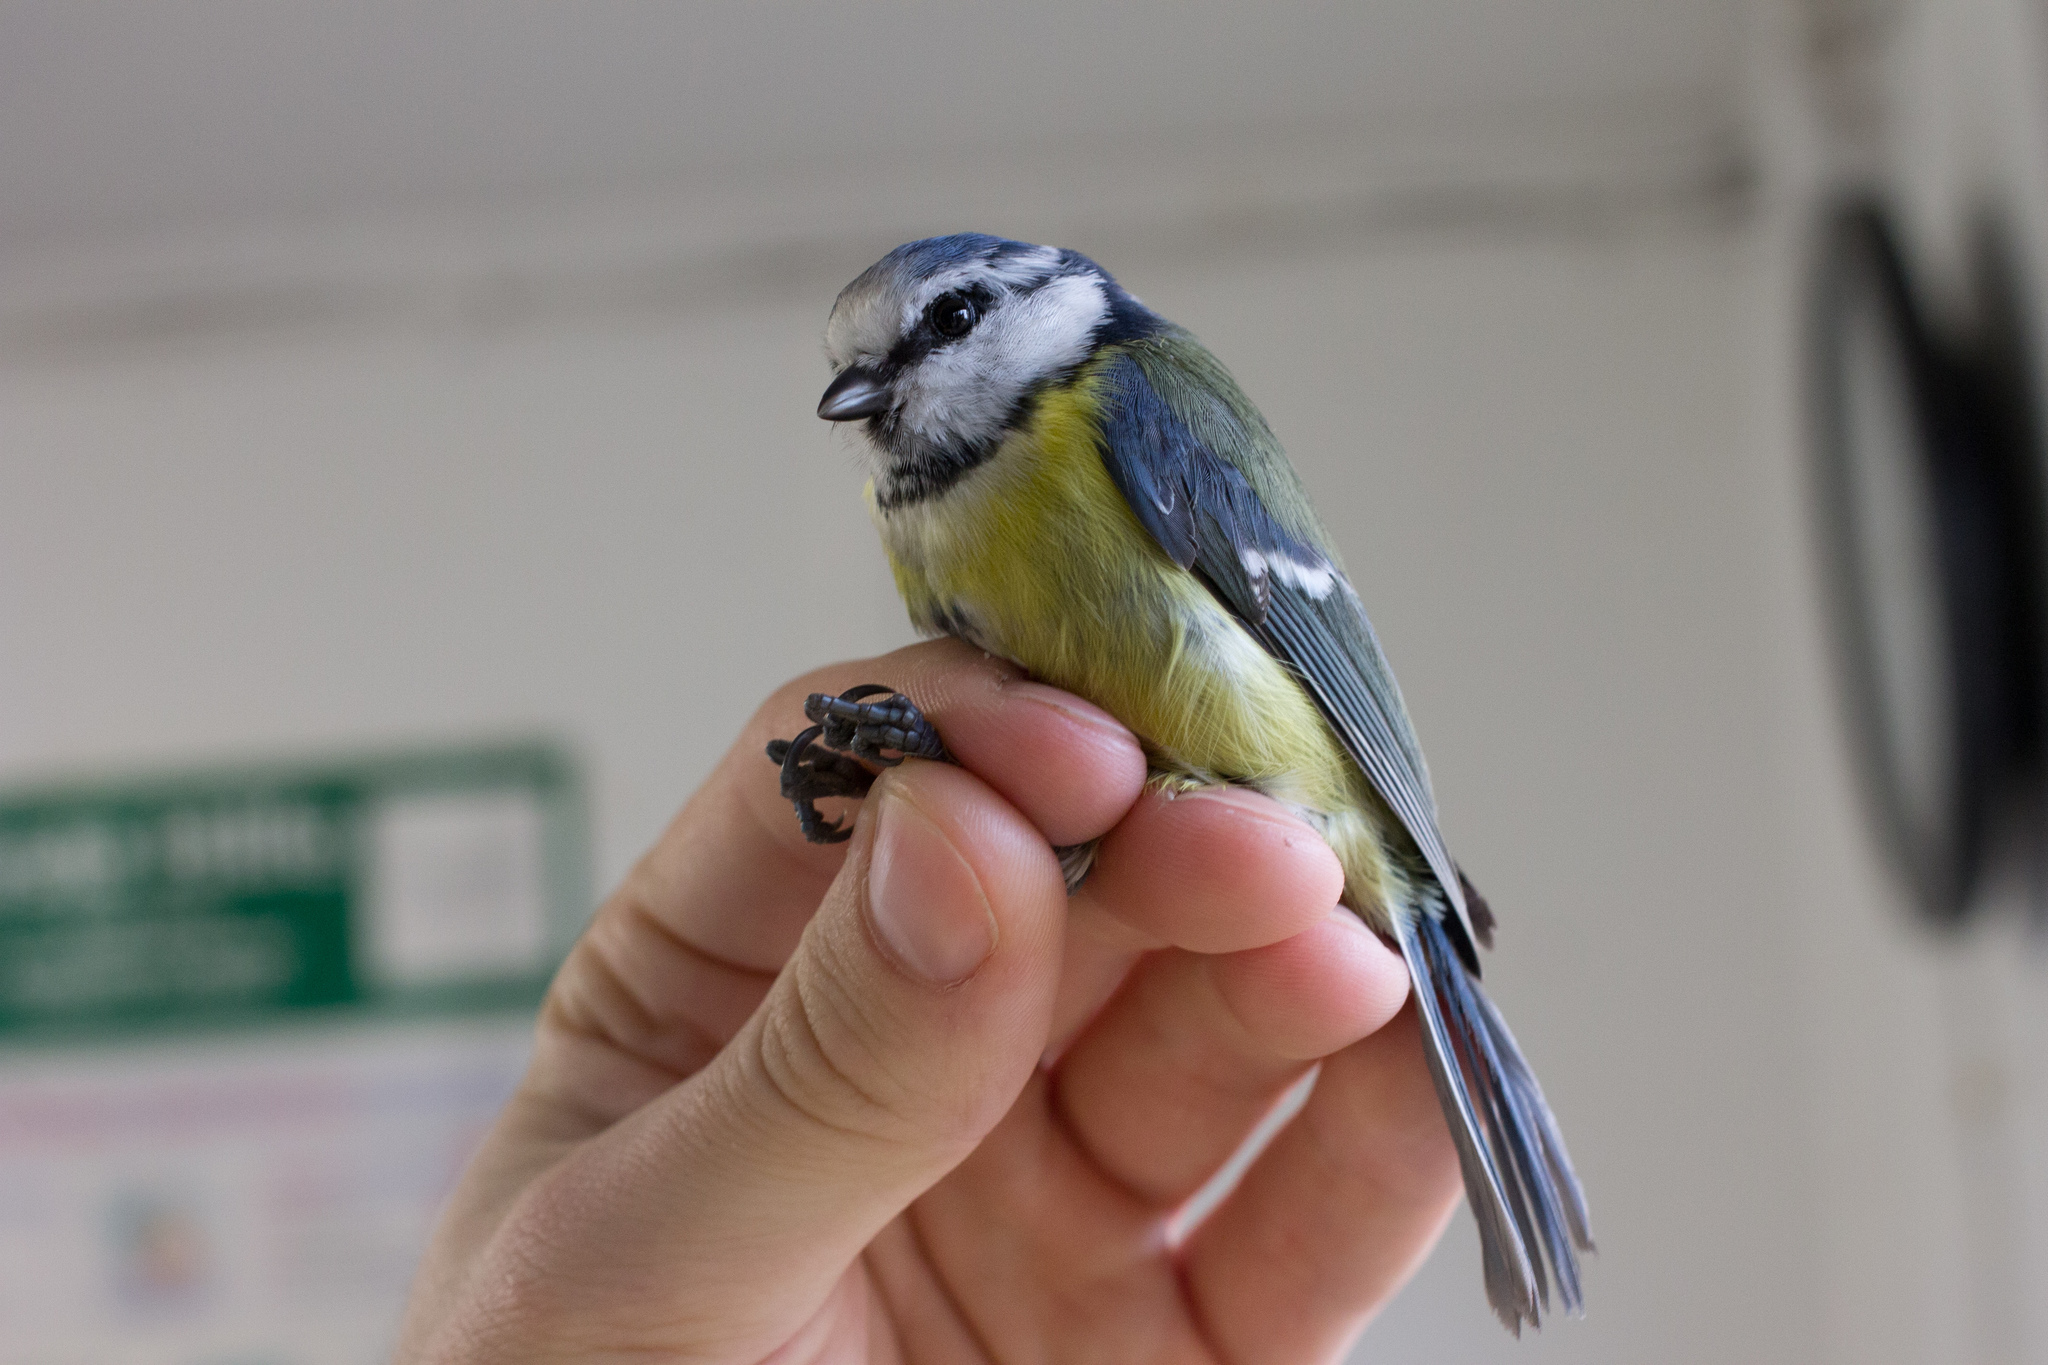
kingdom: Animalia
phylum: Chordata
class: Aves
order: Passeriformes
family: Paridae
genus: Cyanistes
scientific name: Cyanistes caeruleus
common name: Eurasian blue tit
